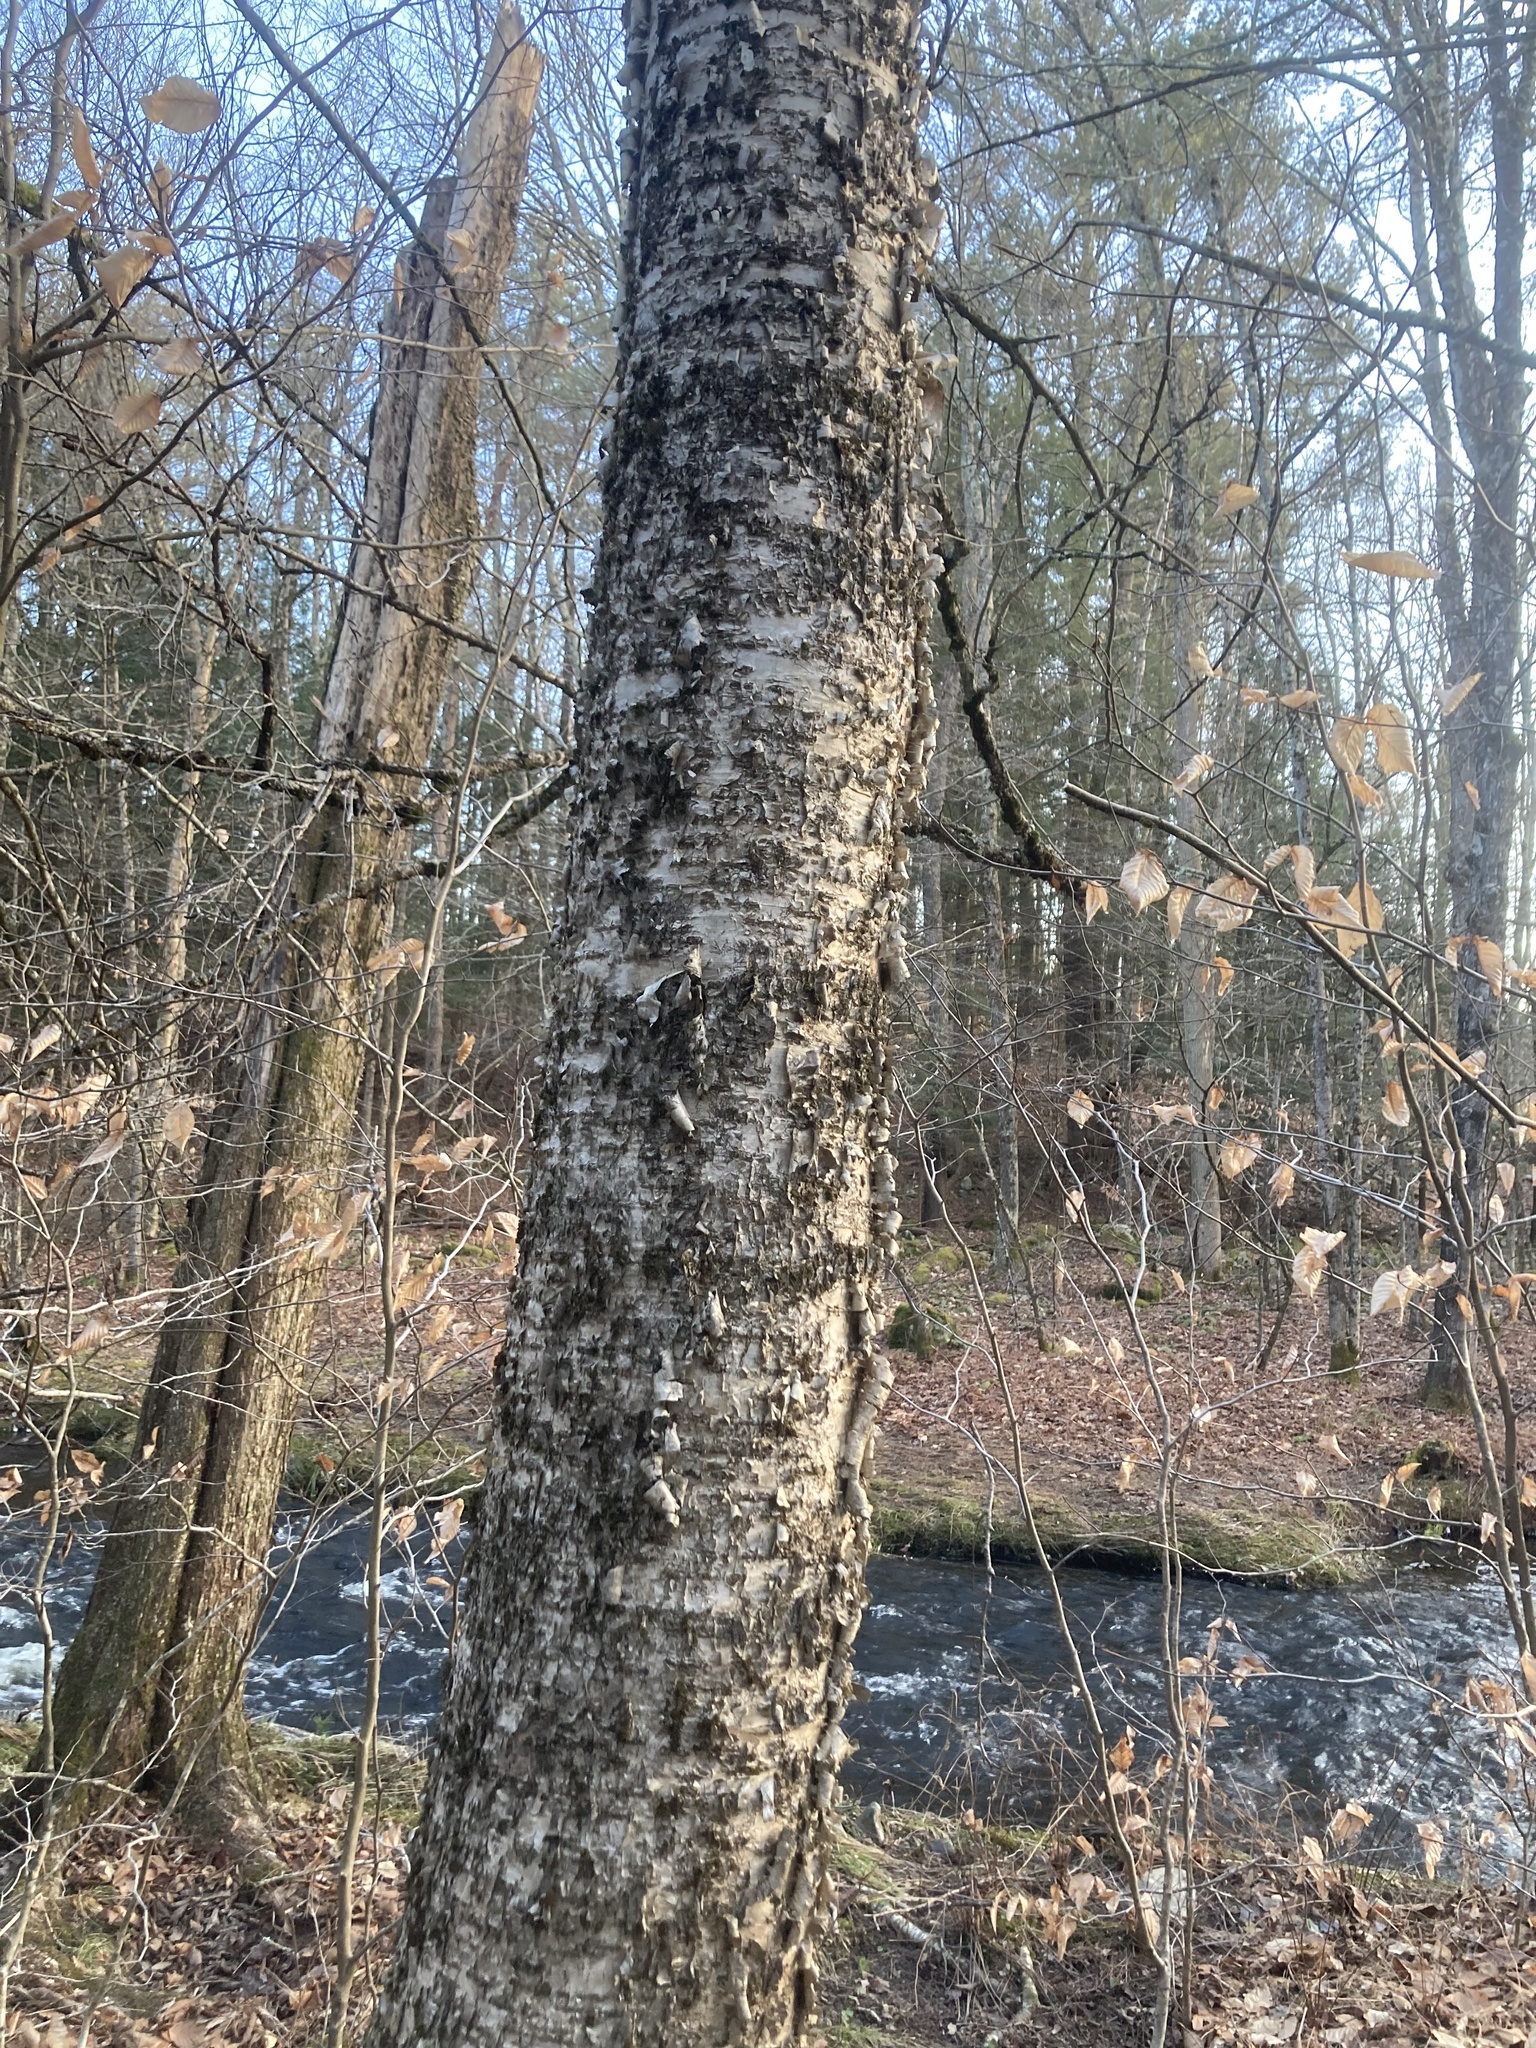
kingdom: Plantae
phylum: Tracheophyta
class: Magnoliopsida
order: Fagales
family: Betulaceae
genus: Betula
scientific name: Betula alleghaniensis
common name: Yellow birch
